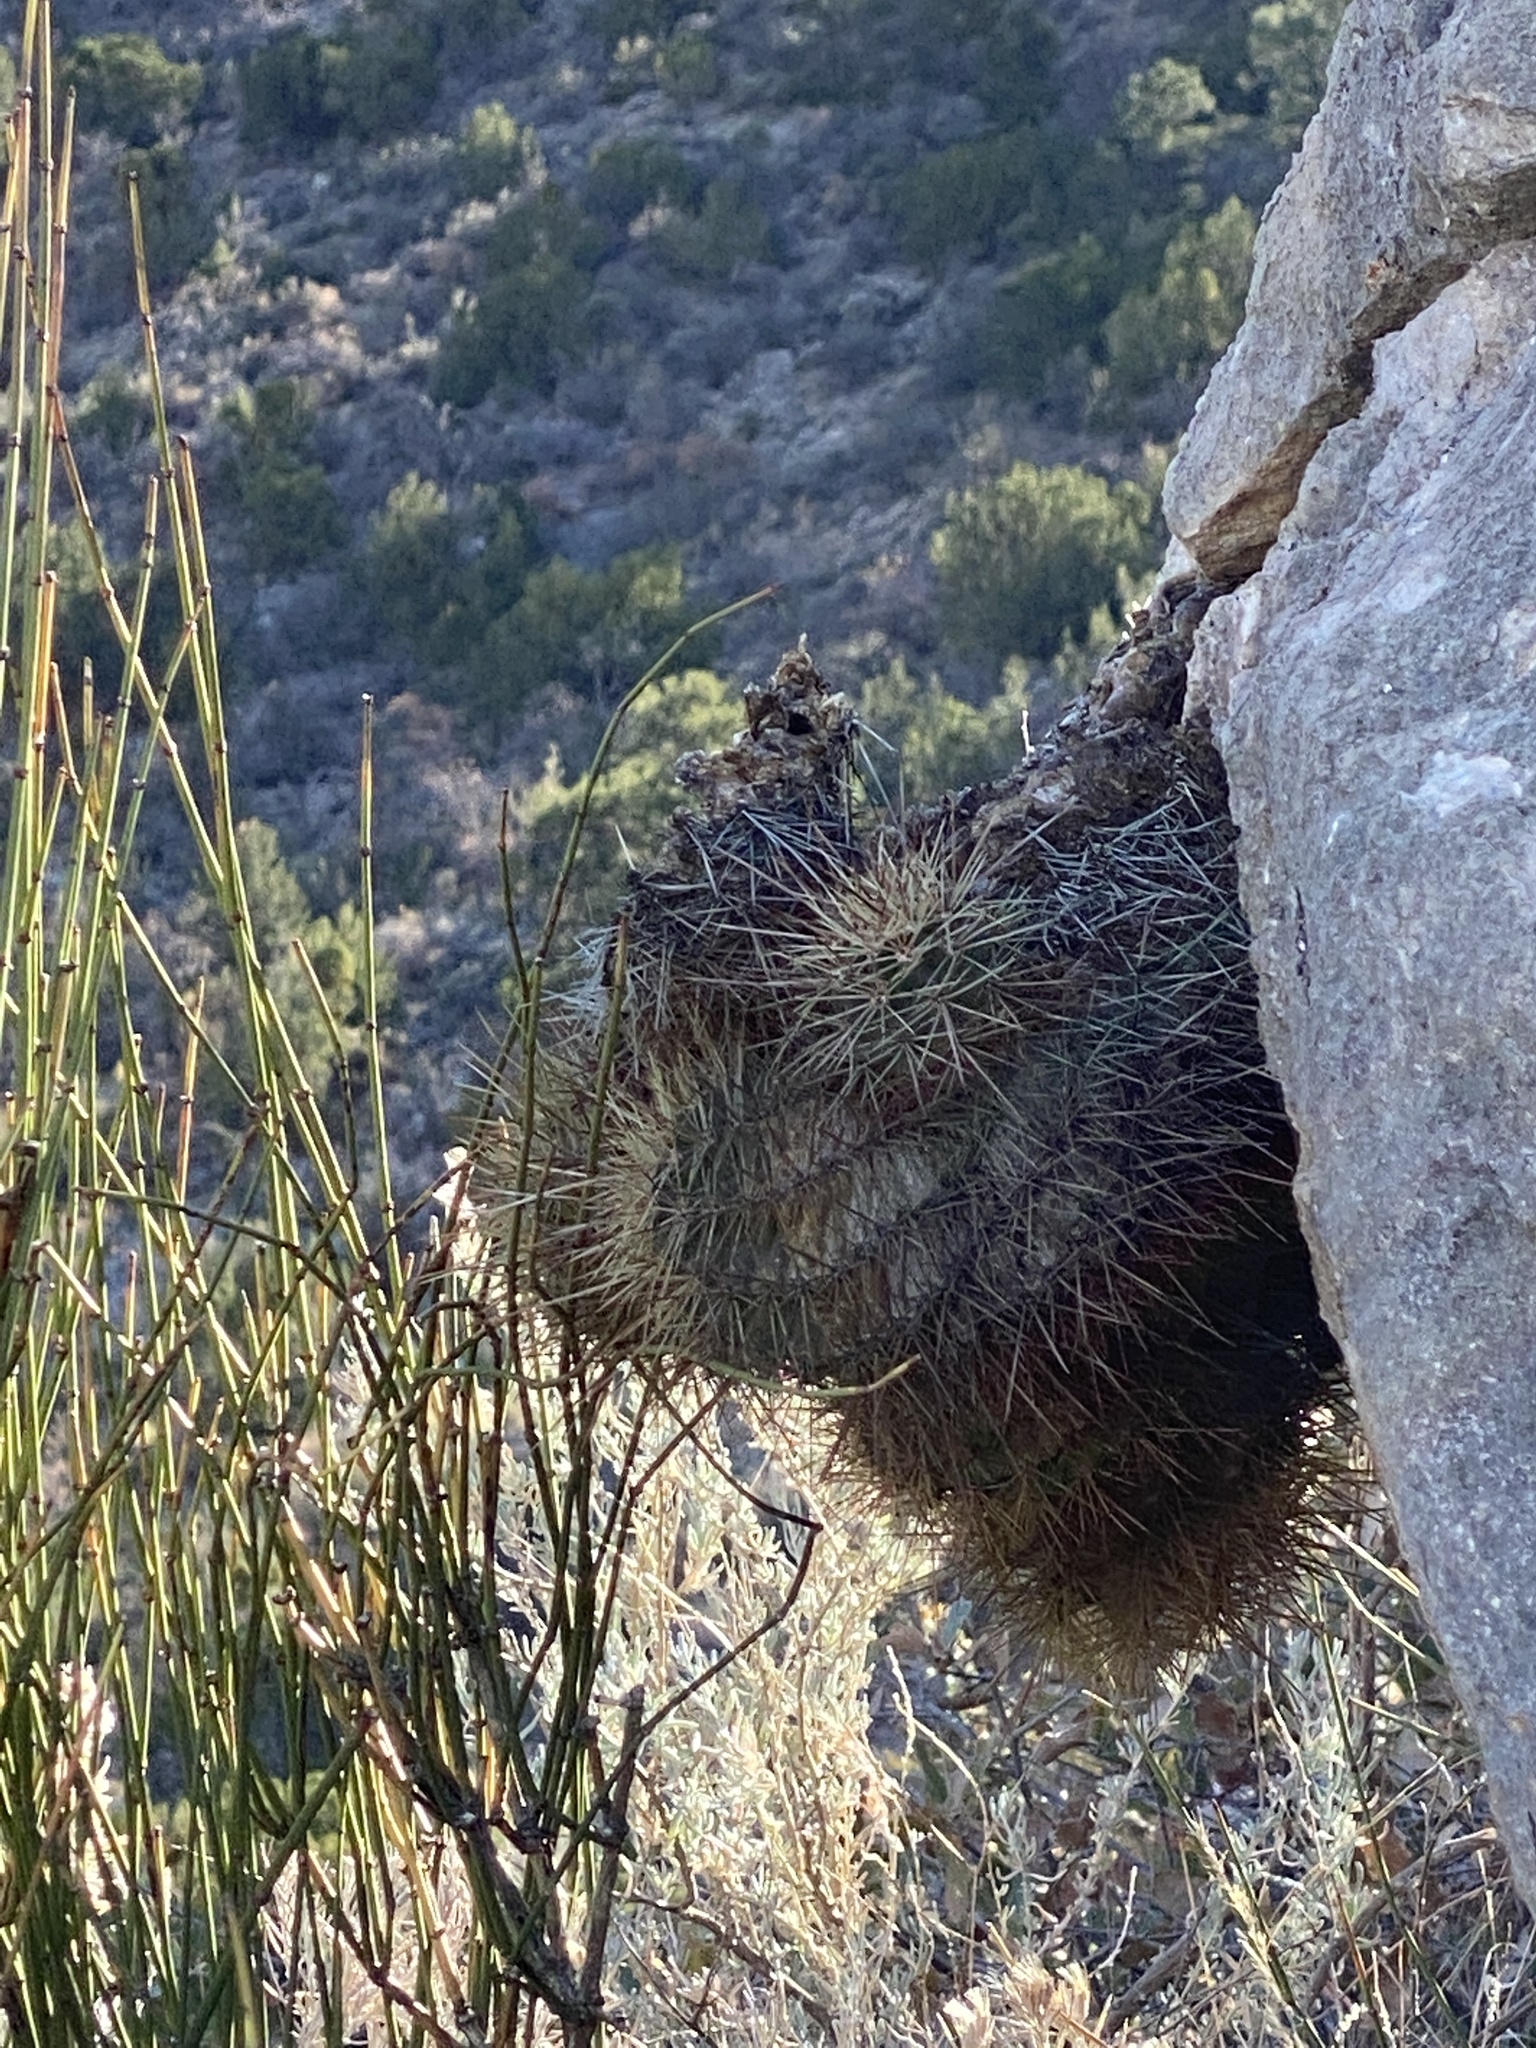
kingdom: Plantae
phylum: Tracheophyta
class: Magnoliopsida
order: Caryophyllales
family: Cactaceae
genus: Echinocereus
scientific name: Echinocereus coccineus
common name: Scarlet hedgehog cactus
